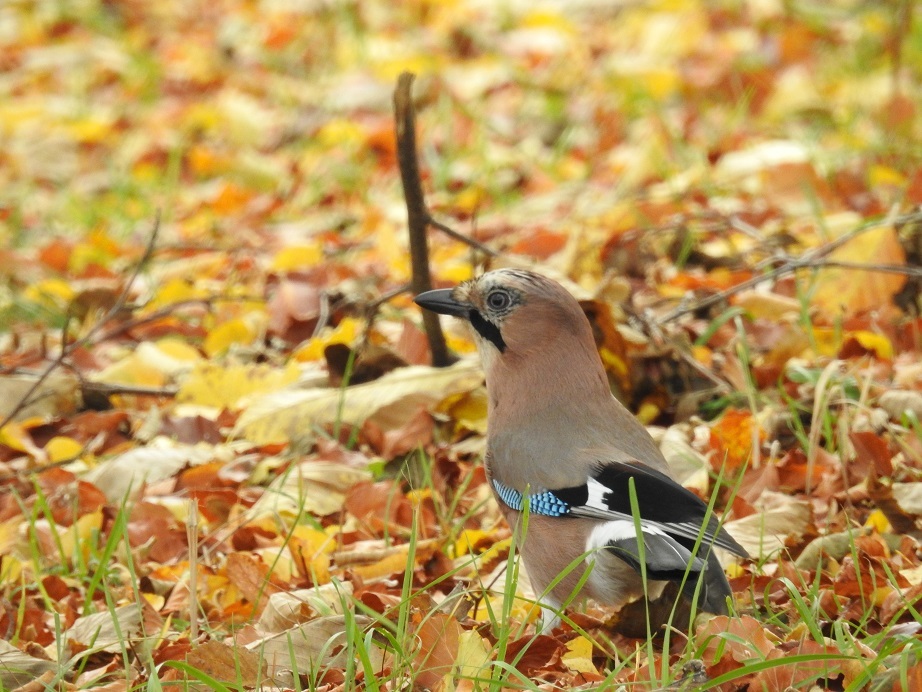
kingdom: Animalia
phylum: Chordata
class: Aves
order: Passeriformes
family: Corvidae
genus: Garrulus
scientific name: Garrulus glandarius
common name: Eurasian jay
